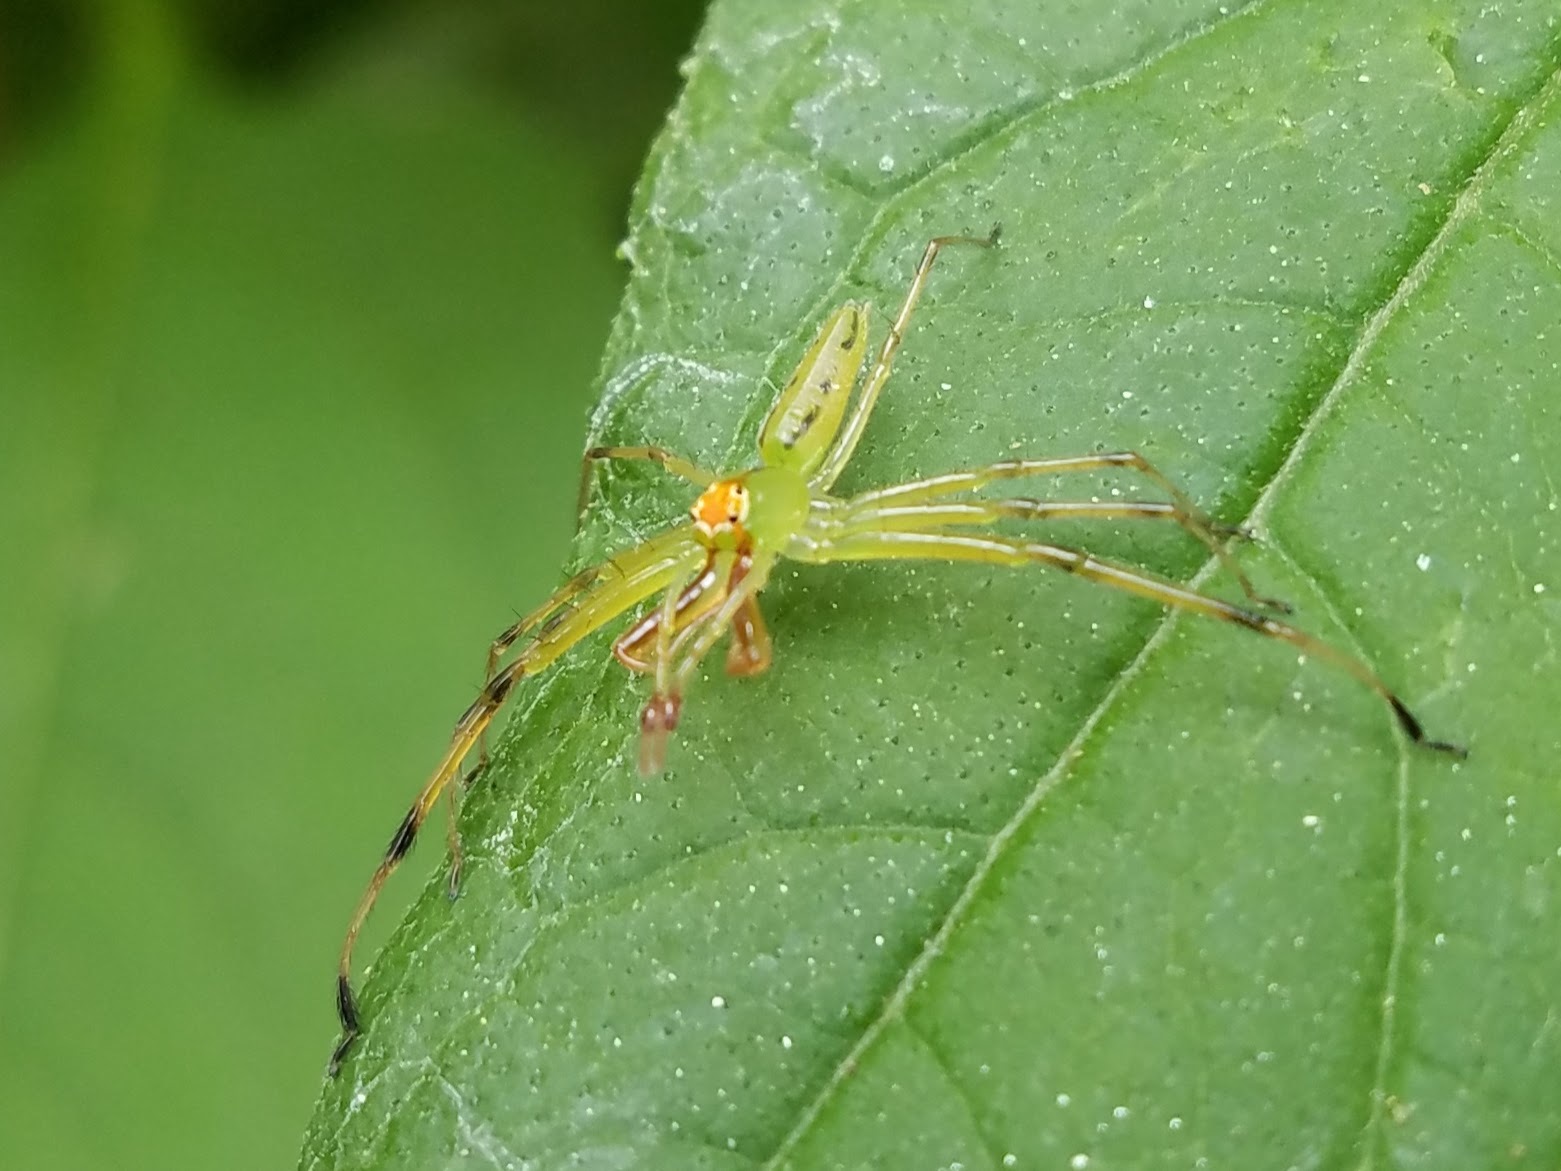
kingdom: Animalia
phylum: Arthropoda
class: Arachnida
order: Araneae
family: Salticidae
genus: Lyssomanes
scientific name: Lyssomanes viridis
